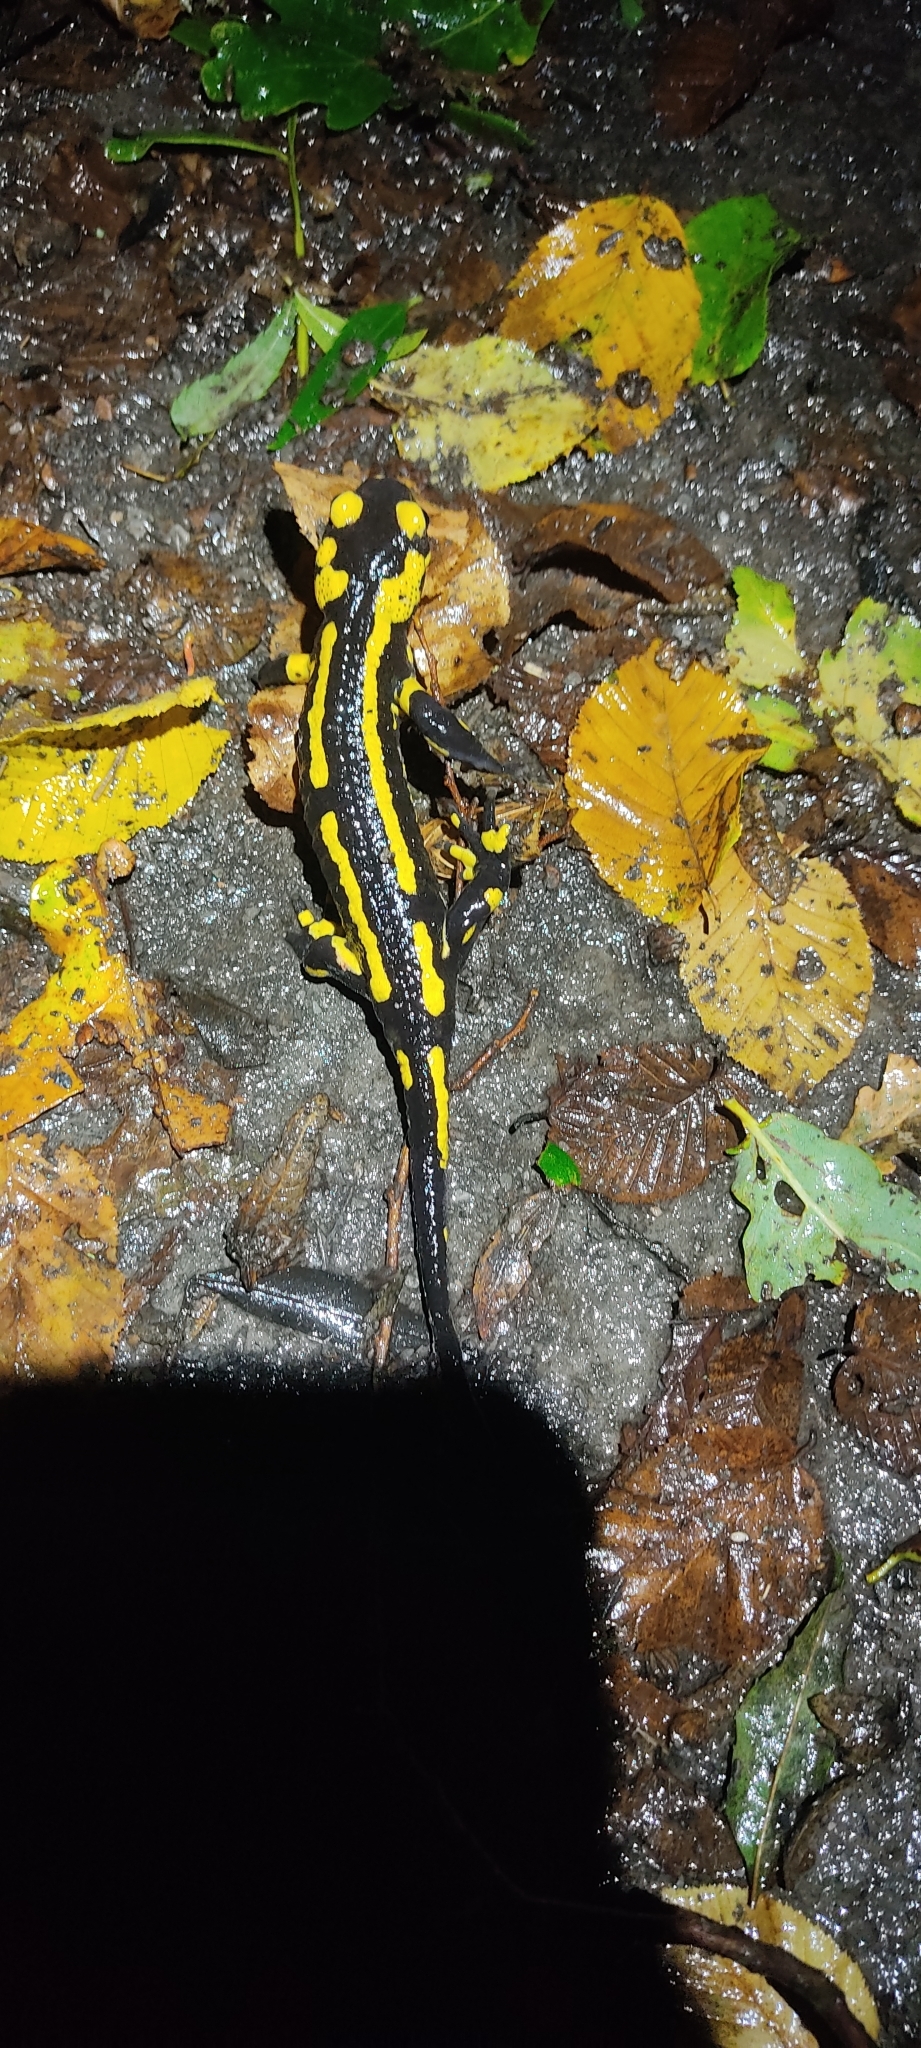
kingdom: Animalia
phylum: Chordata
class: Amphibia
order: Caudata
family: Salamandridae
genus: Salamandra
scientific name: Salamandra salamandra
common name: Fire salamander
